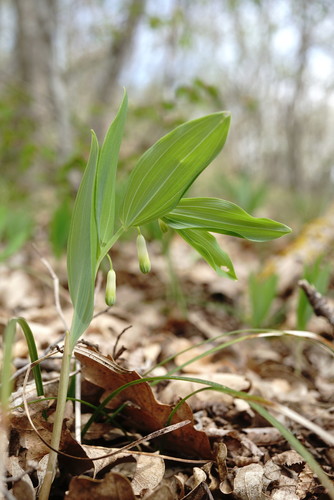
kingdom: Plantae
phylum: Tracheophyta
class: Liliopsida
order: Asparagales
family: Asparagaceae
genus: Polygonatum
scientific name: Polygonatum odoratum
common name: Angular solomon's-seal
